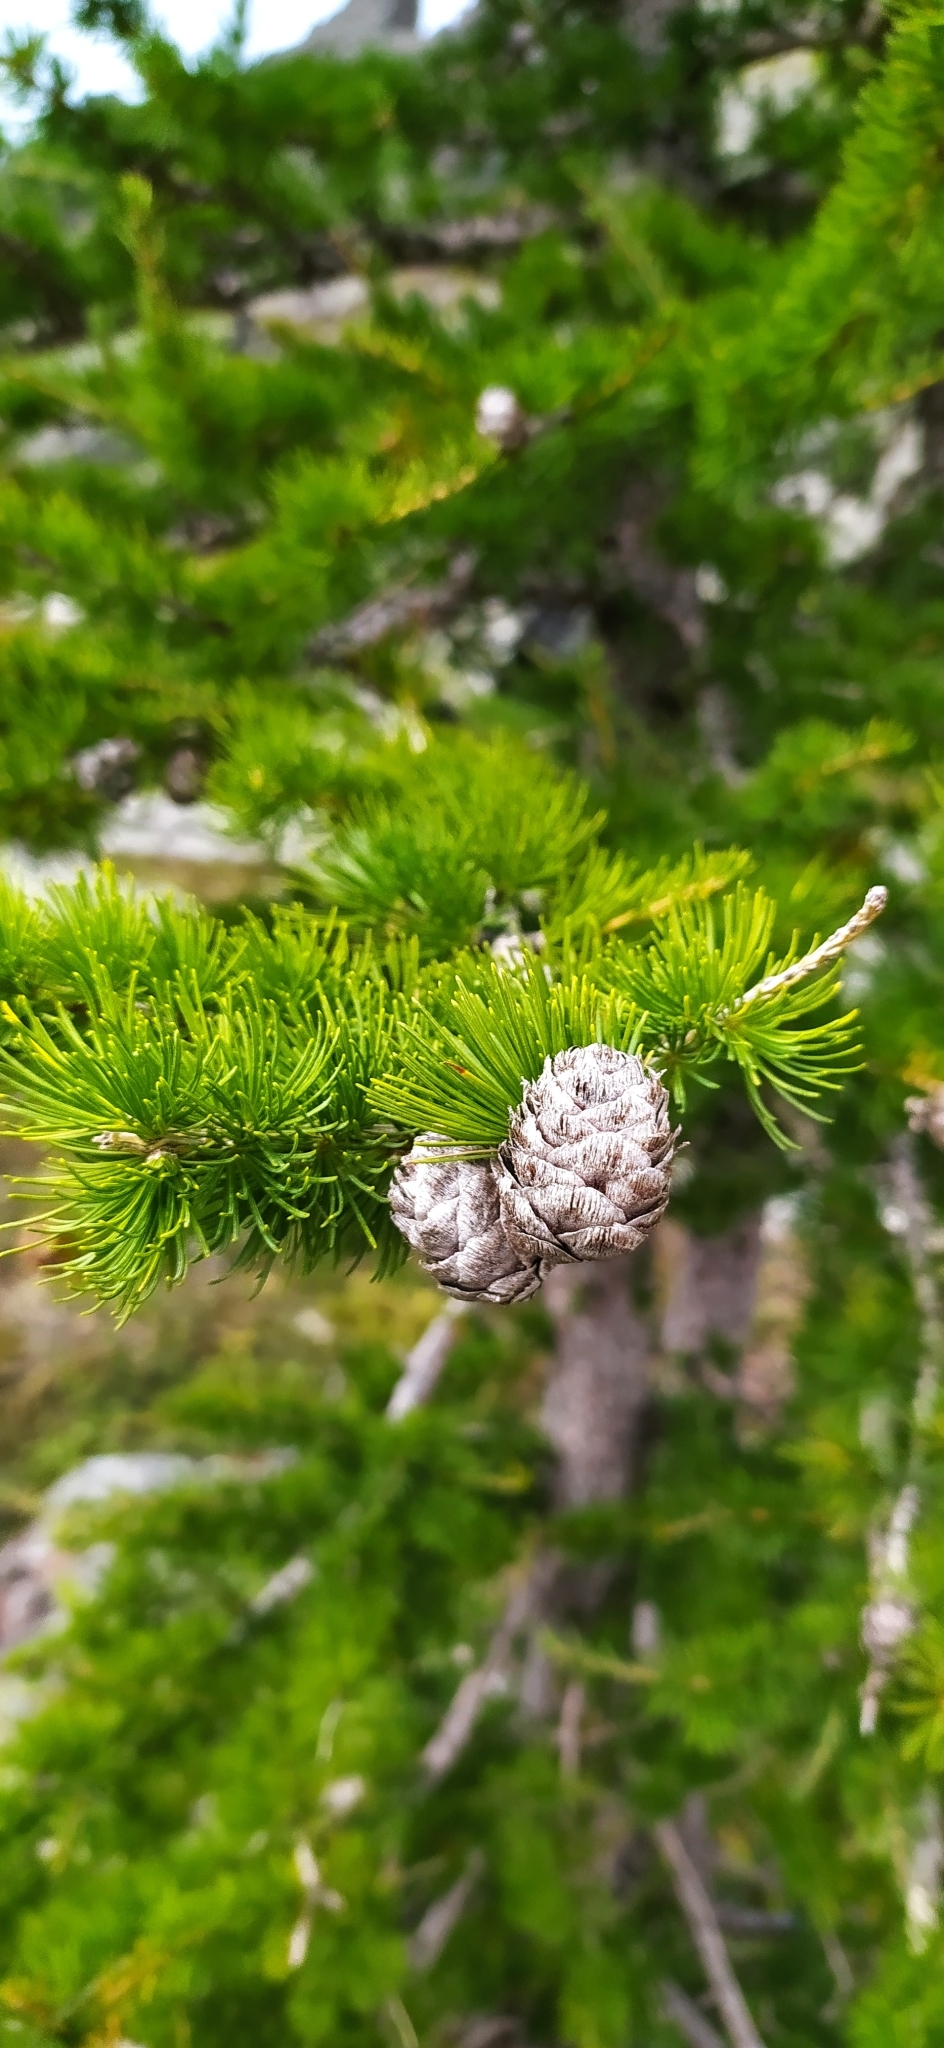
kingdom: Plantae
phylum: Tracheophyta
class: Pinopsida
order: Pinales
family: Pinaceae
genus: Larix
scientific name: Larix sibirica
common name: Siberian larch
